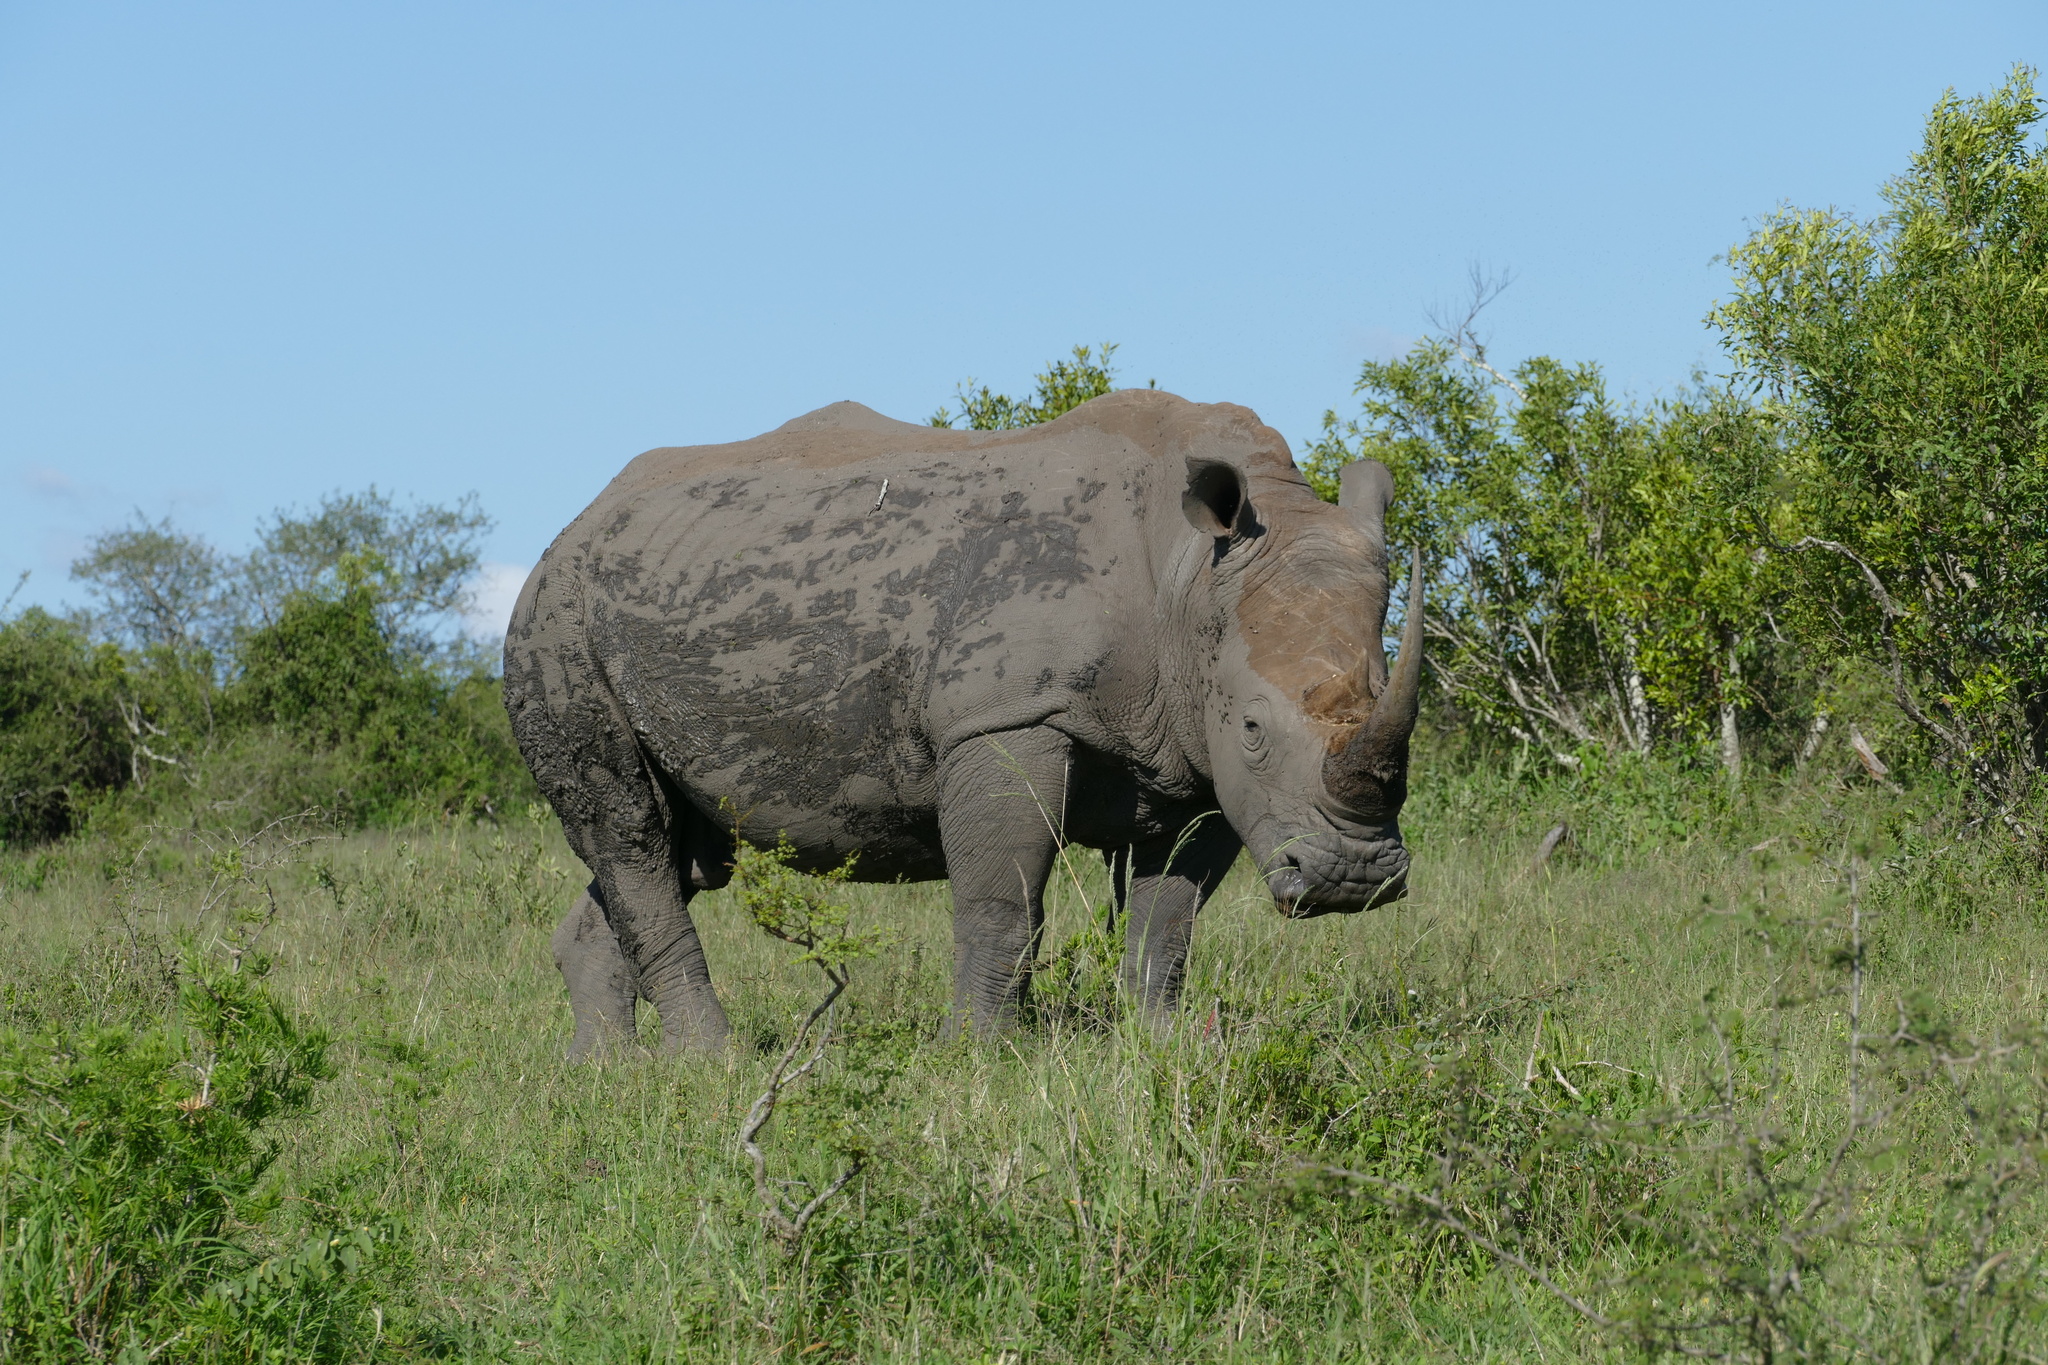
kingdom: Animalia
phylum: Chordata
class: Mammalia
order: Perissodactyla
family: Rhinocerotidae
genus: Ceratotherium
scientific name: Ceratotherium simum
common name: White rhinoceros
